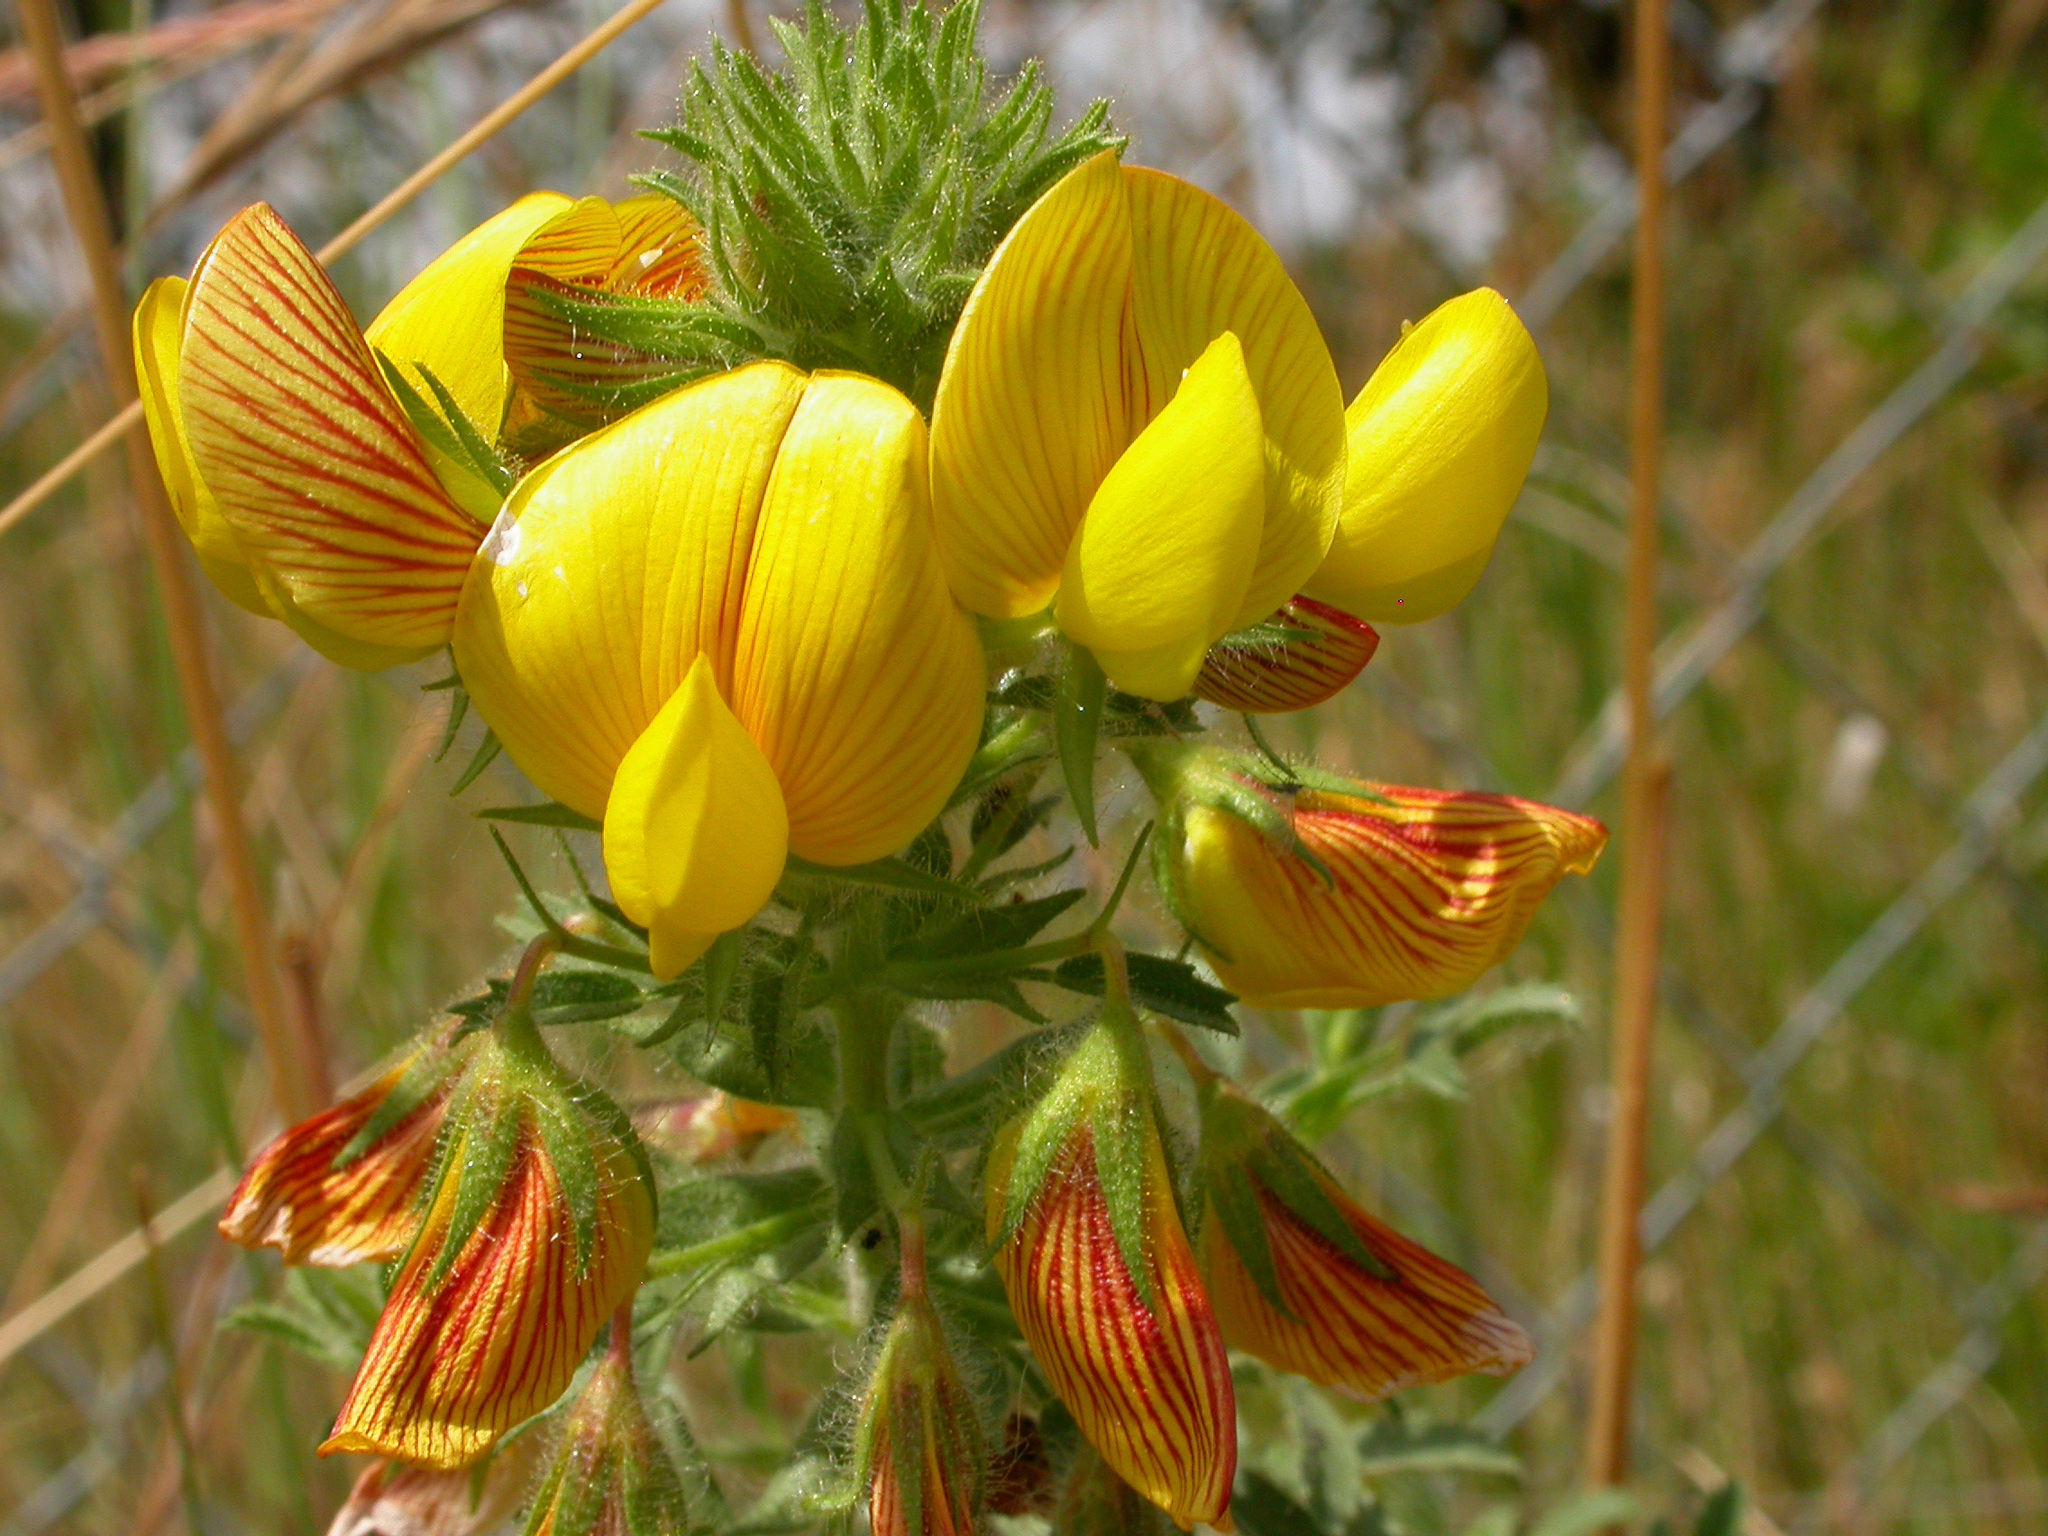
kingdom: Plantae
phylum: Tracheophyta
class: Magnoliopsida
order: Fabales
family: Fabaceae
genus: Ononis
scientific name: Ononis natrix
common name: Yellow restharrow
